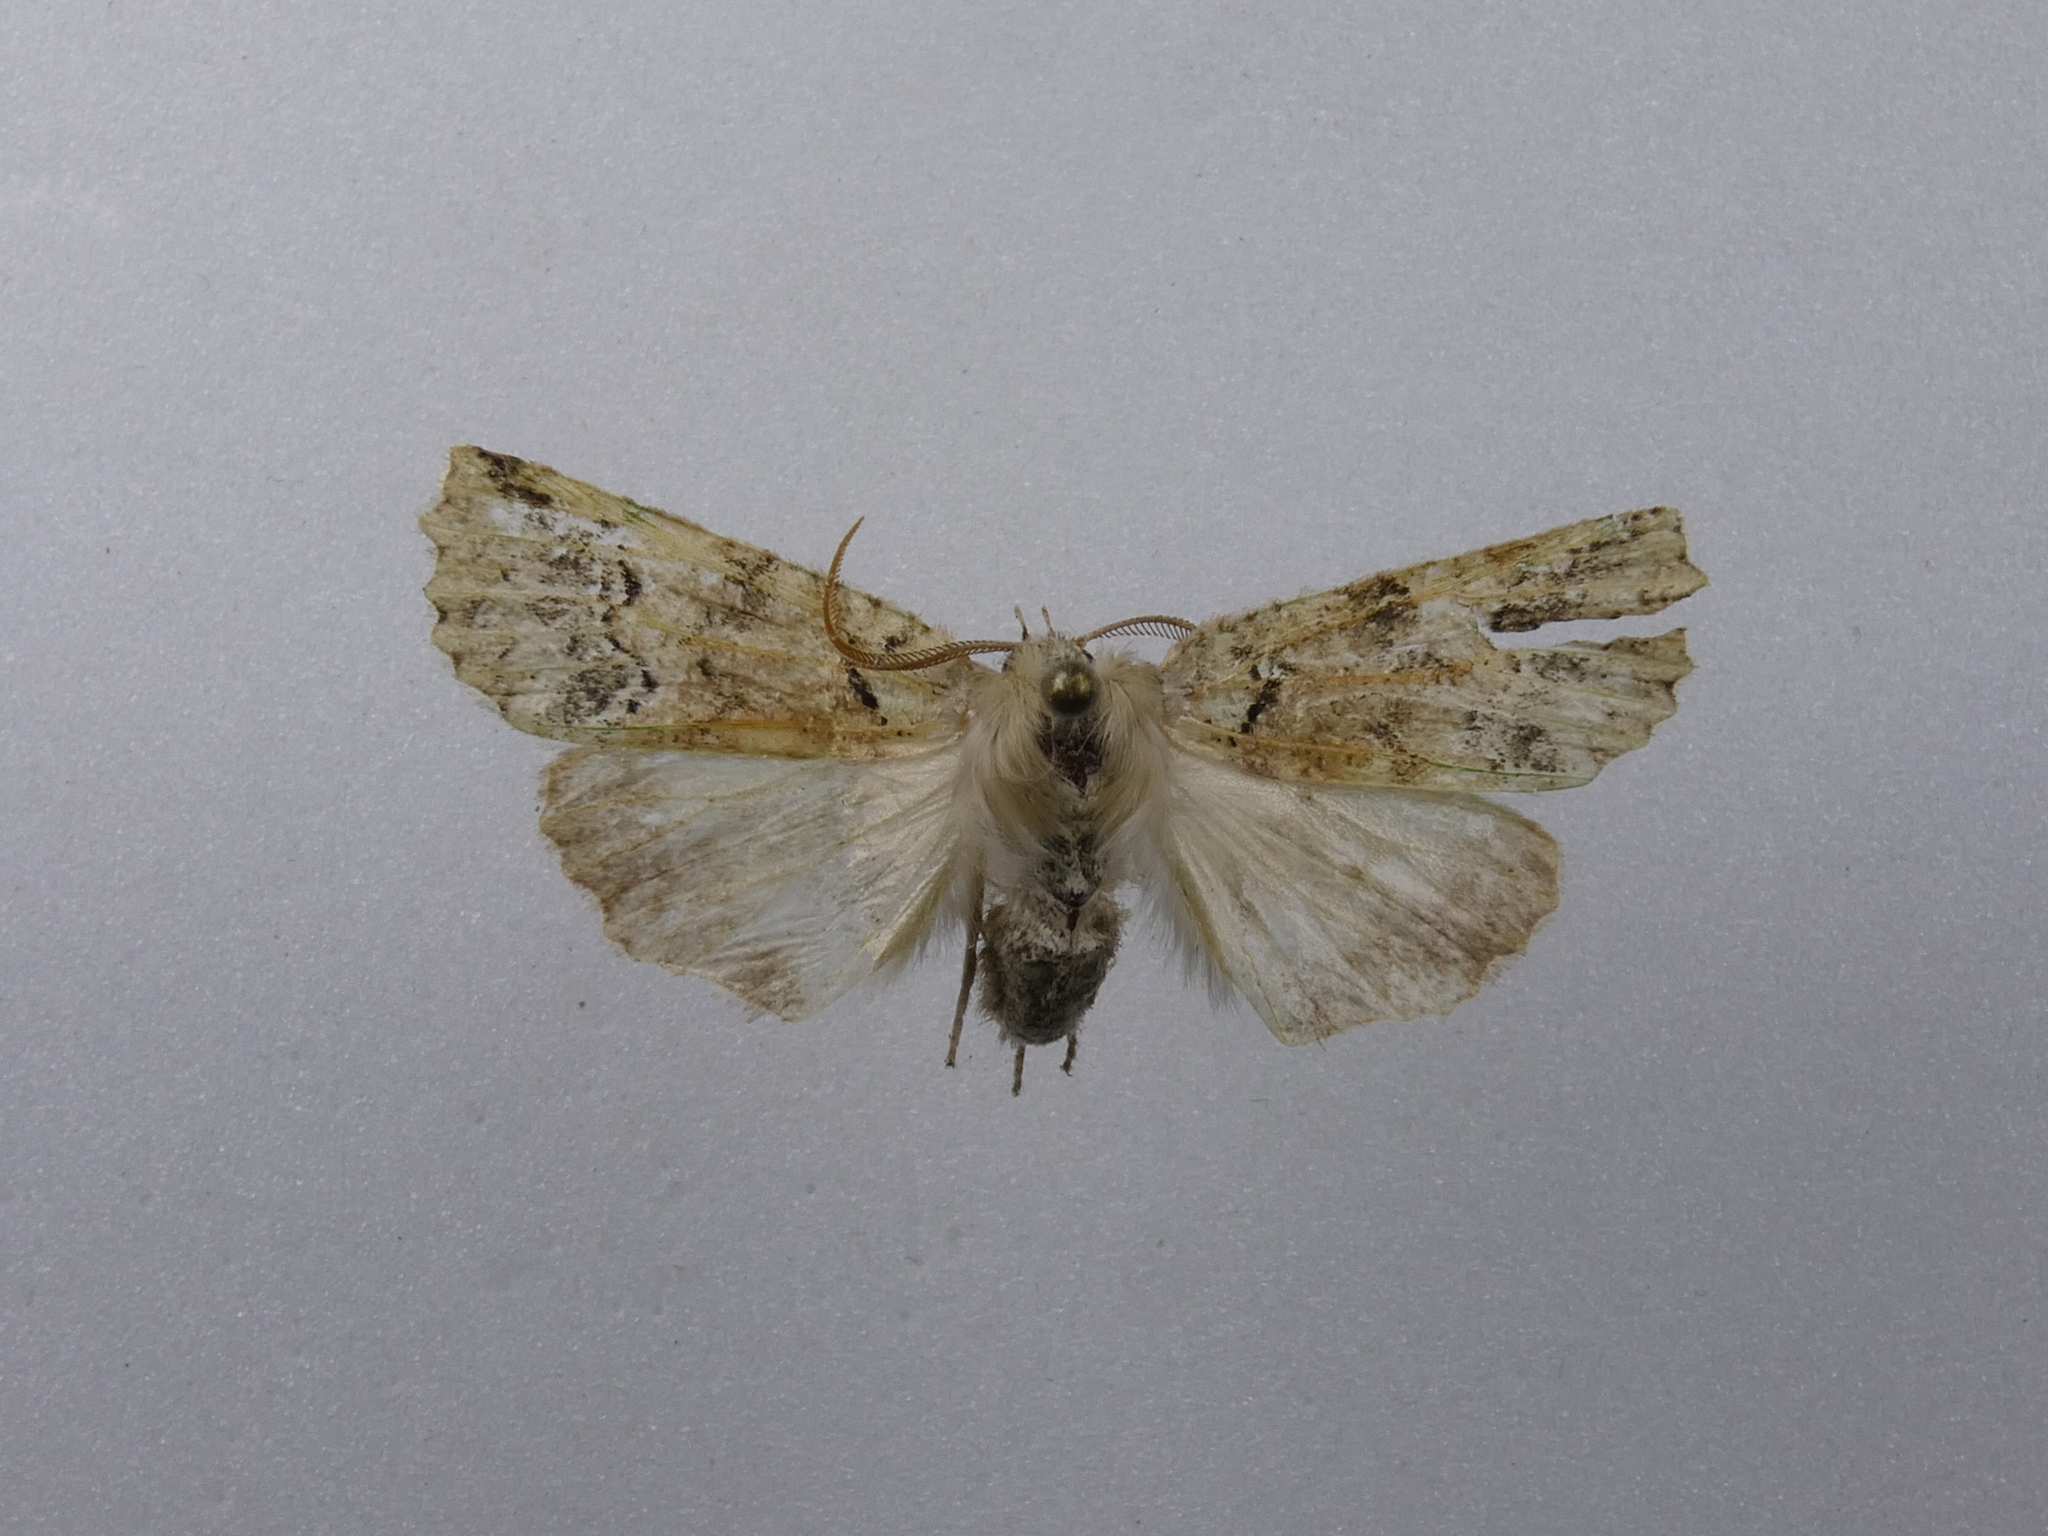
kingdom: Animalia
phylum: Arthropoda
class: Insecta
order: Lepidoptera
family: Geometridae
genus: Declana
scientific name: Declana floccosa
